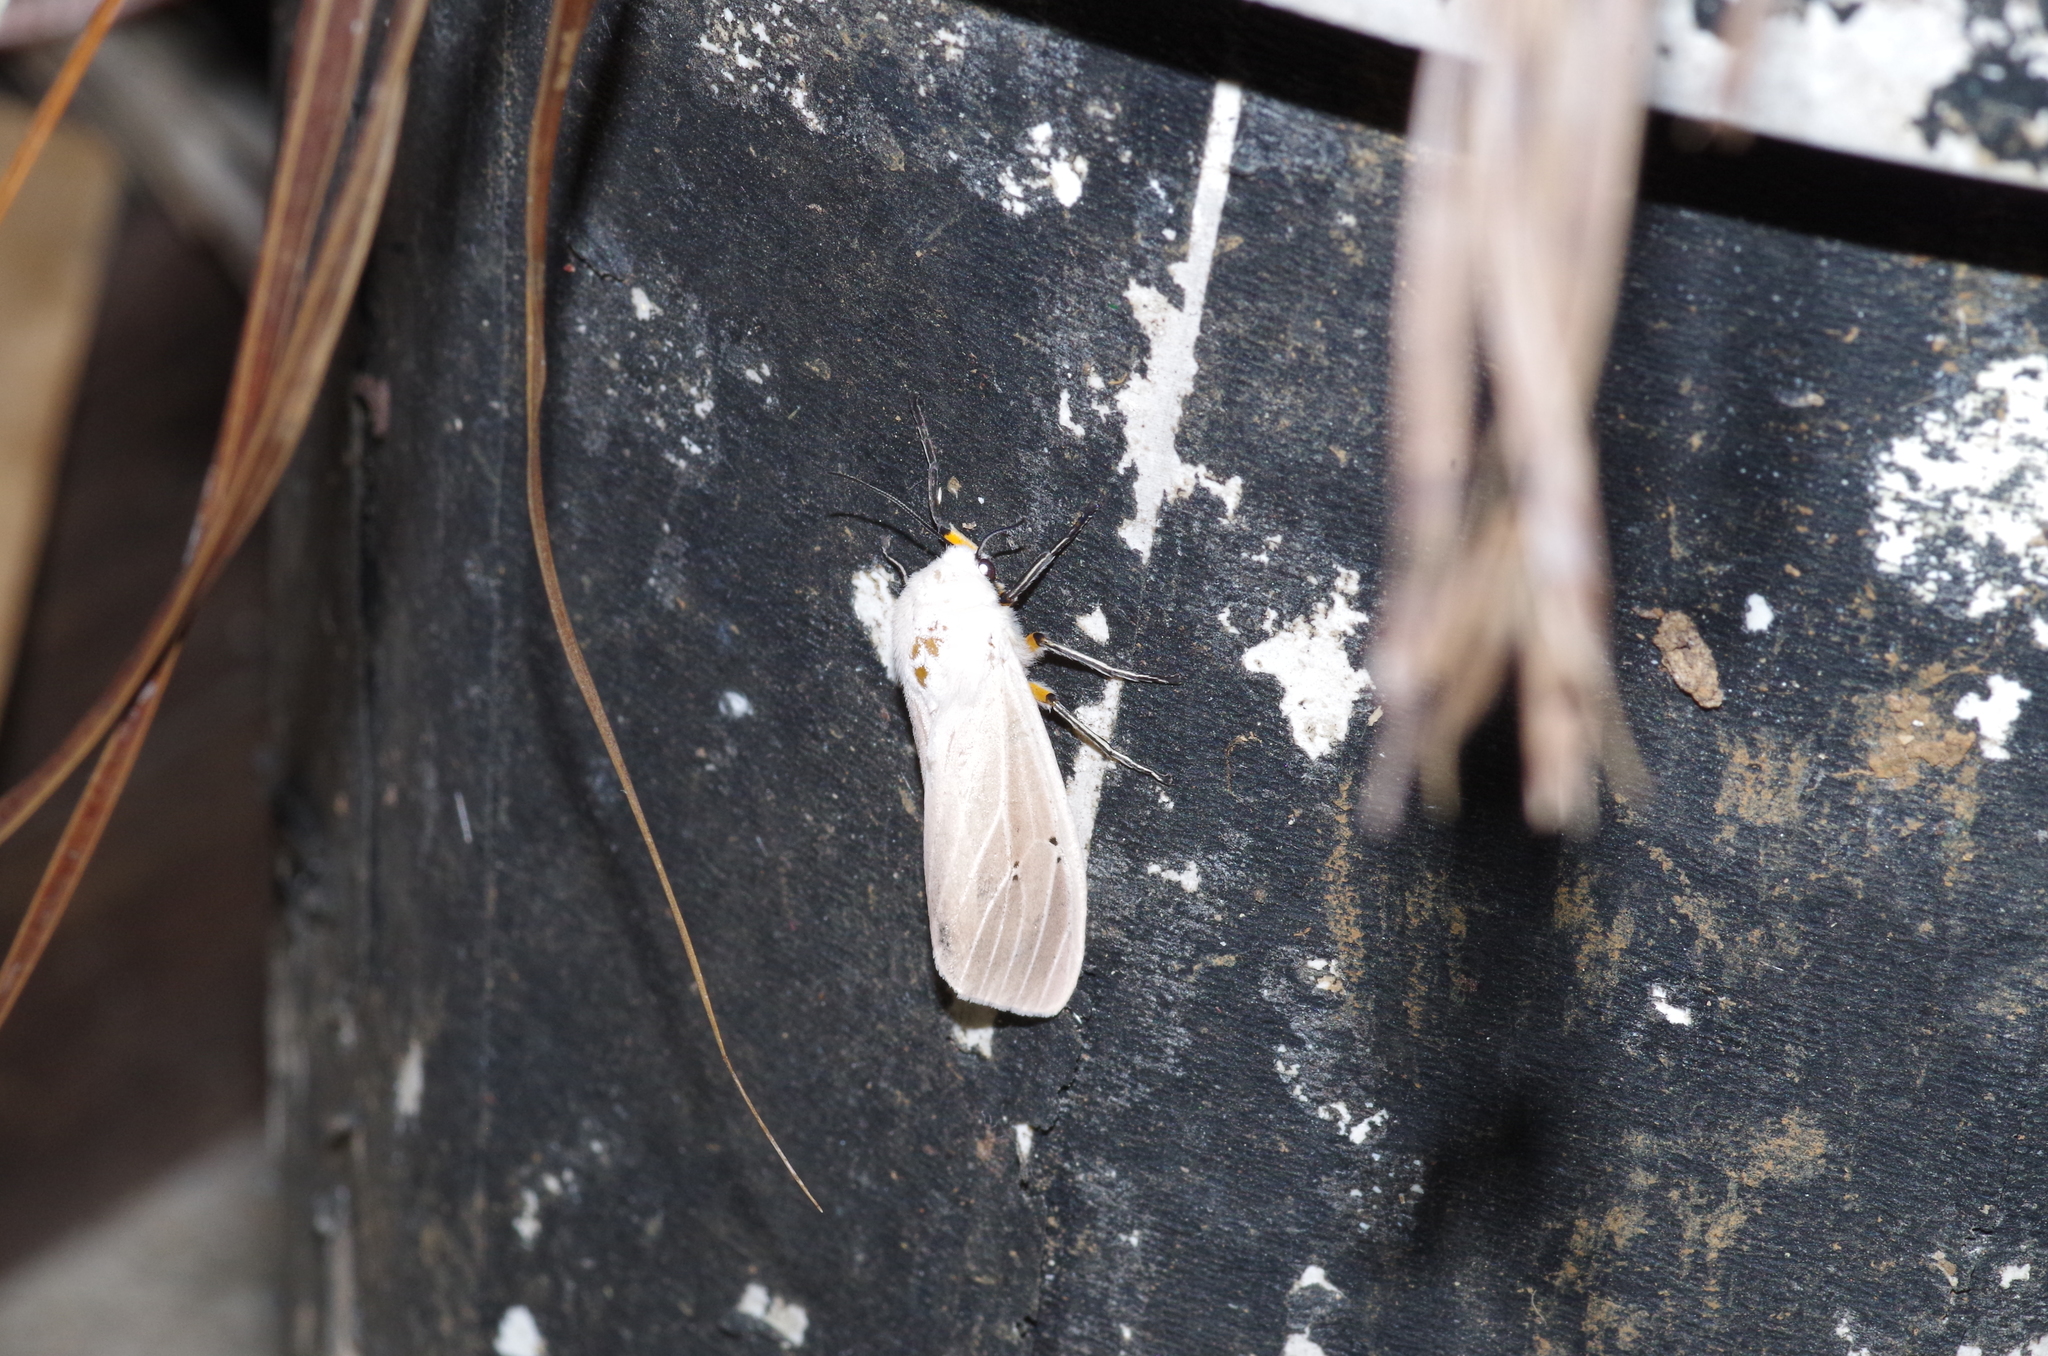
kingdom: Animalia
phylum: Arthropoda
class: Insecta
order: Lepidoptera
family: Erebidae
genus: Creatonotos
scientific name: Creatonotos transiens
